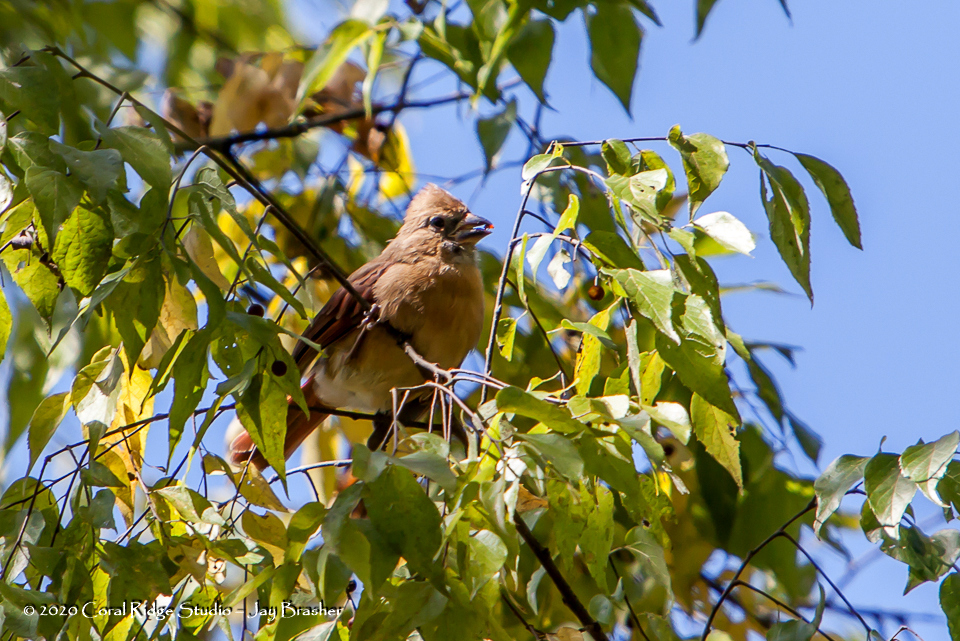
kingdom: Animalia
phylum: Chordata
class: Aves
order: Passeriformes
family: Cardinalidae
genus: Cardinalis
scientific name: Cardinalis cardinalis
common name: Northern cardinal
